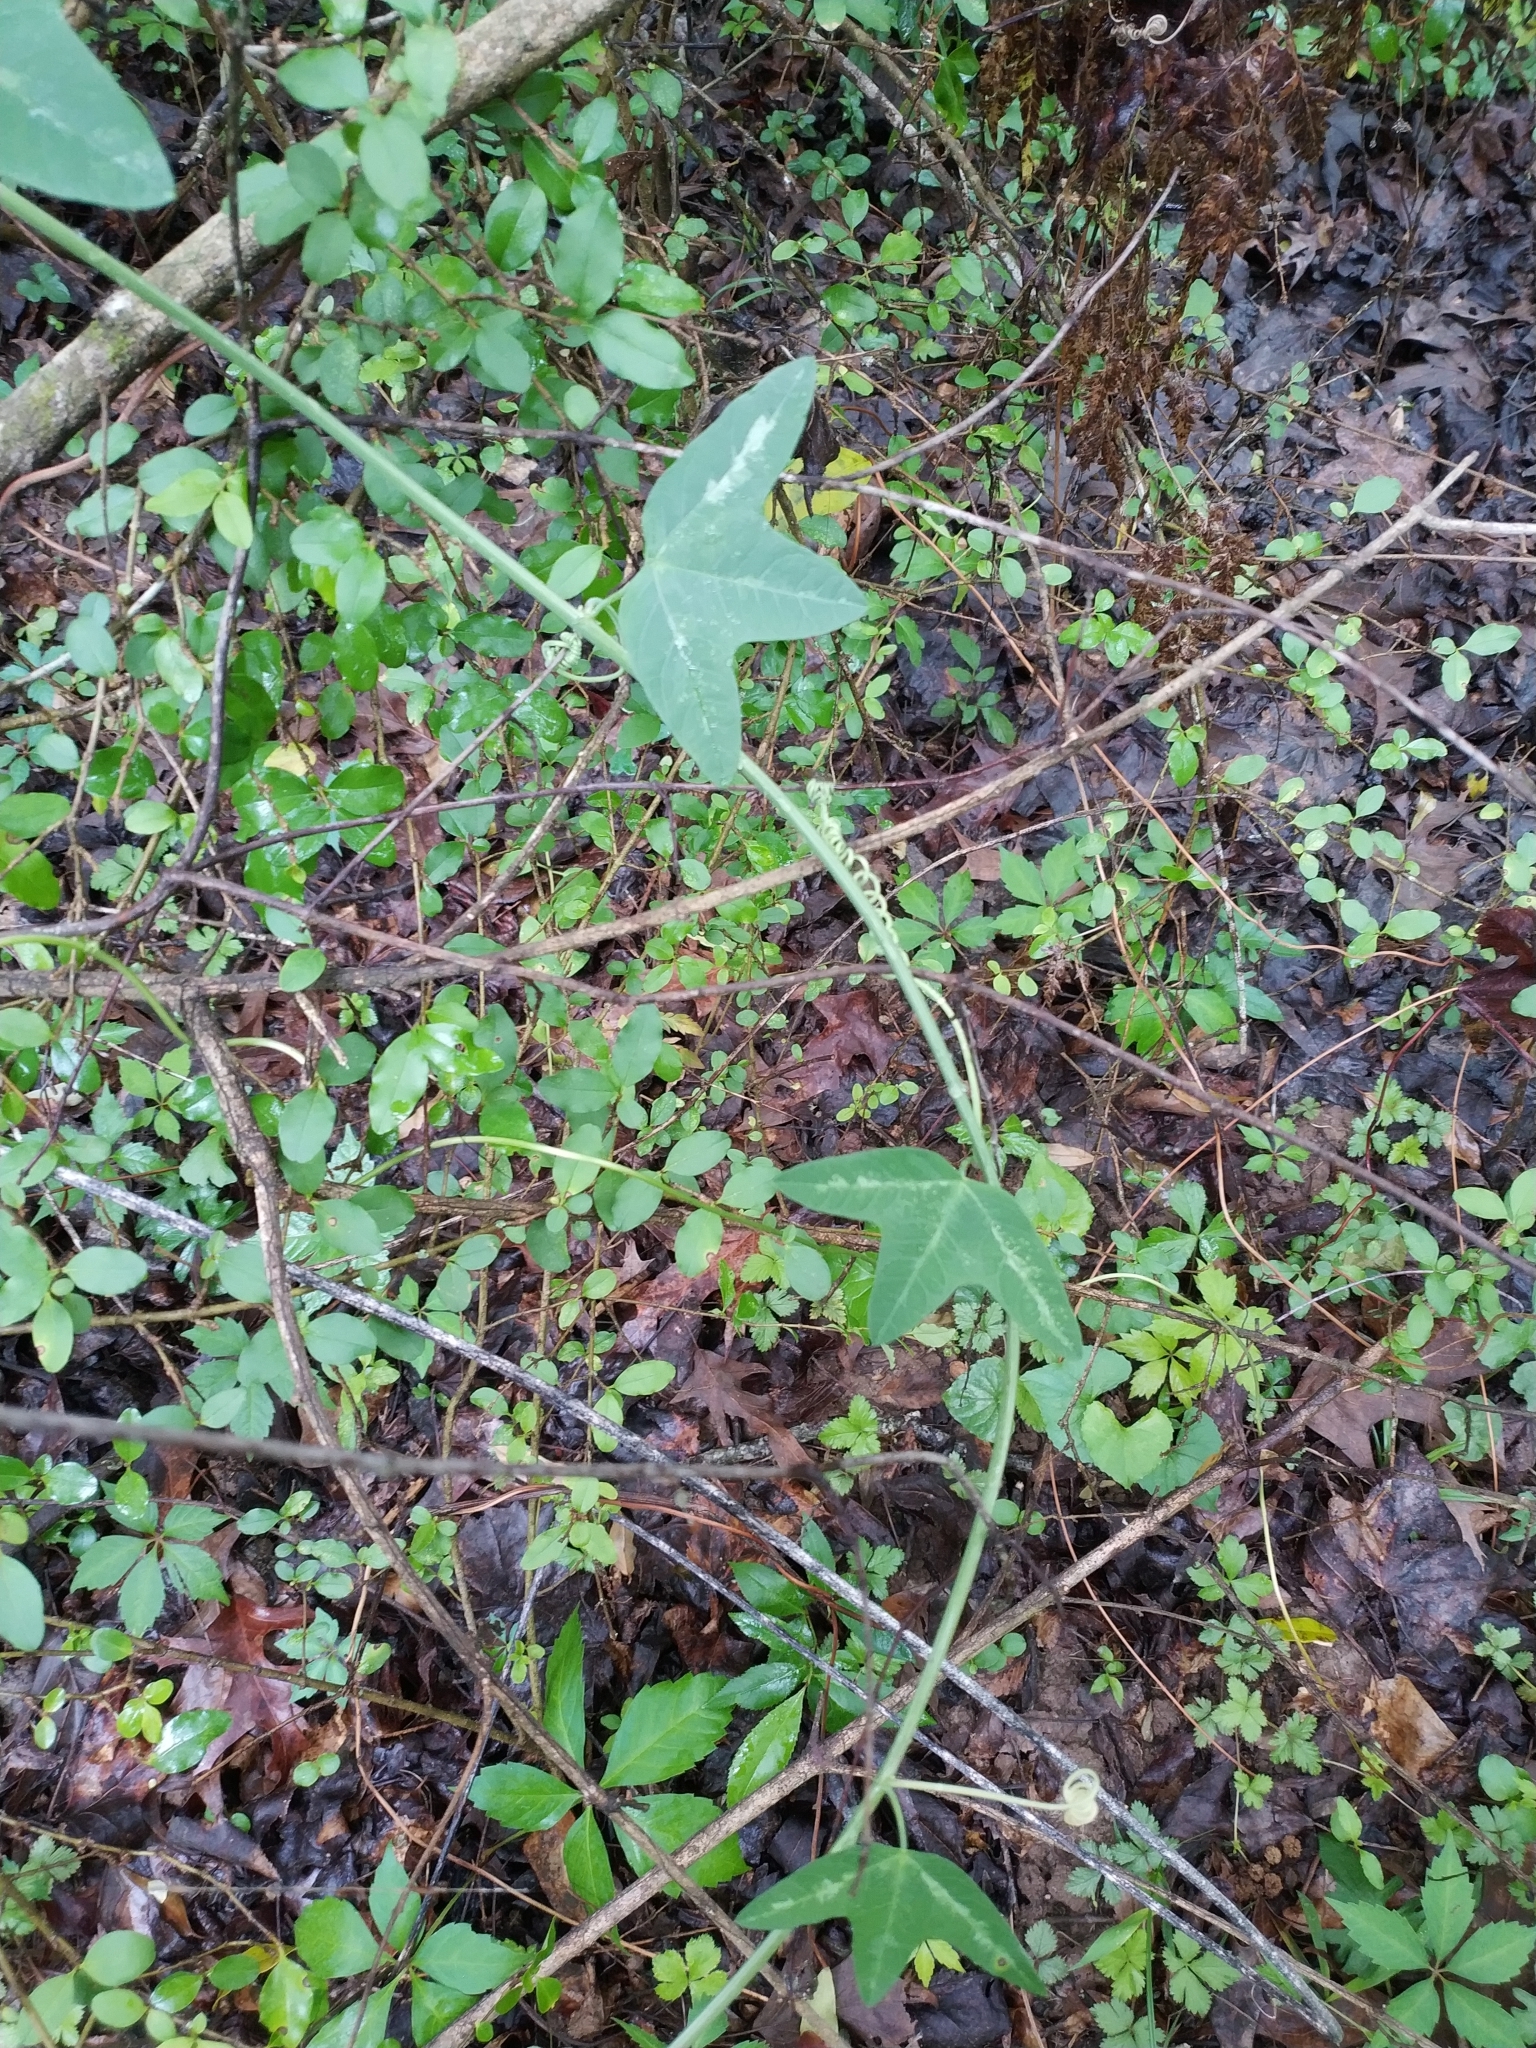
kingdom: Plantae
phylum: Tracheophyta
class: Magnoliopsida
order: Malpighiales
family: Passifloraceae
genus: Passiflora
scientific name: Passiflora lutea
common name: Yellow passionflower
